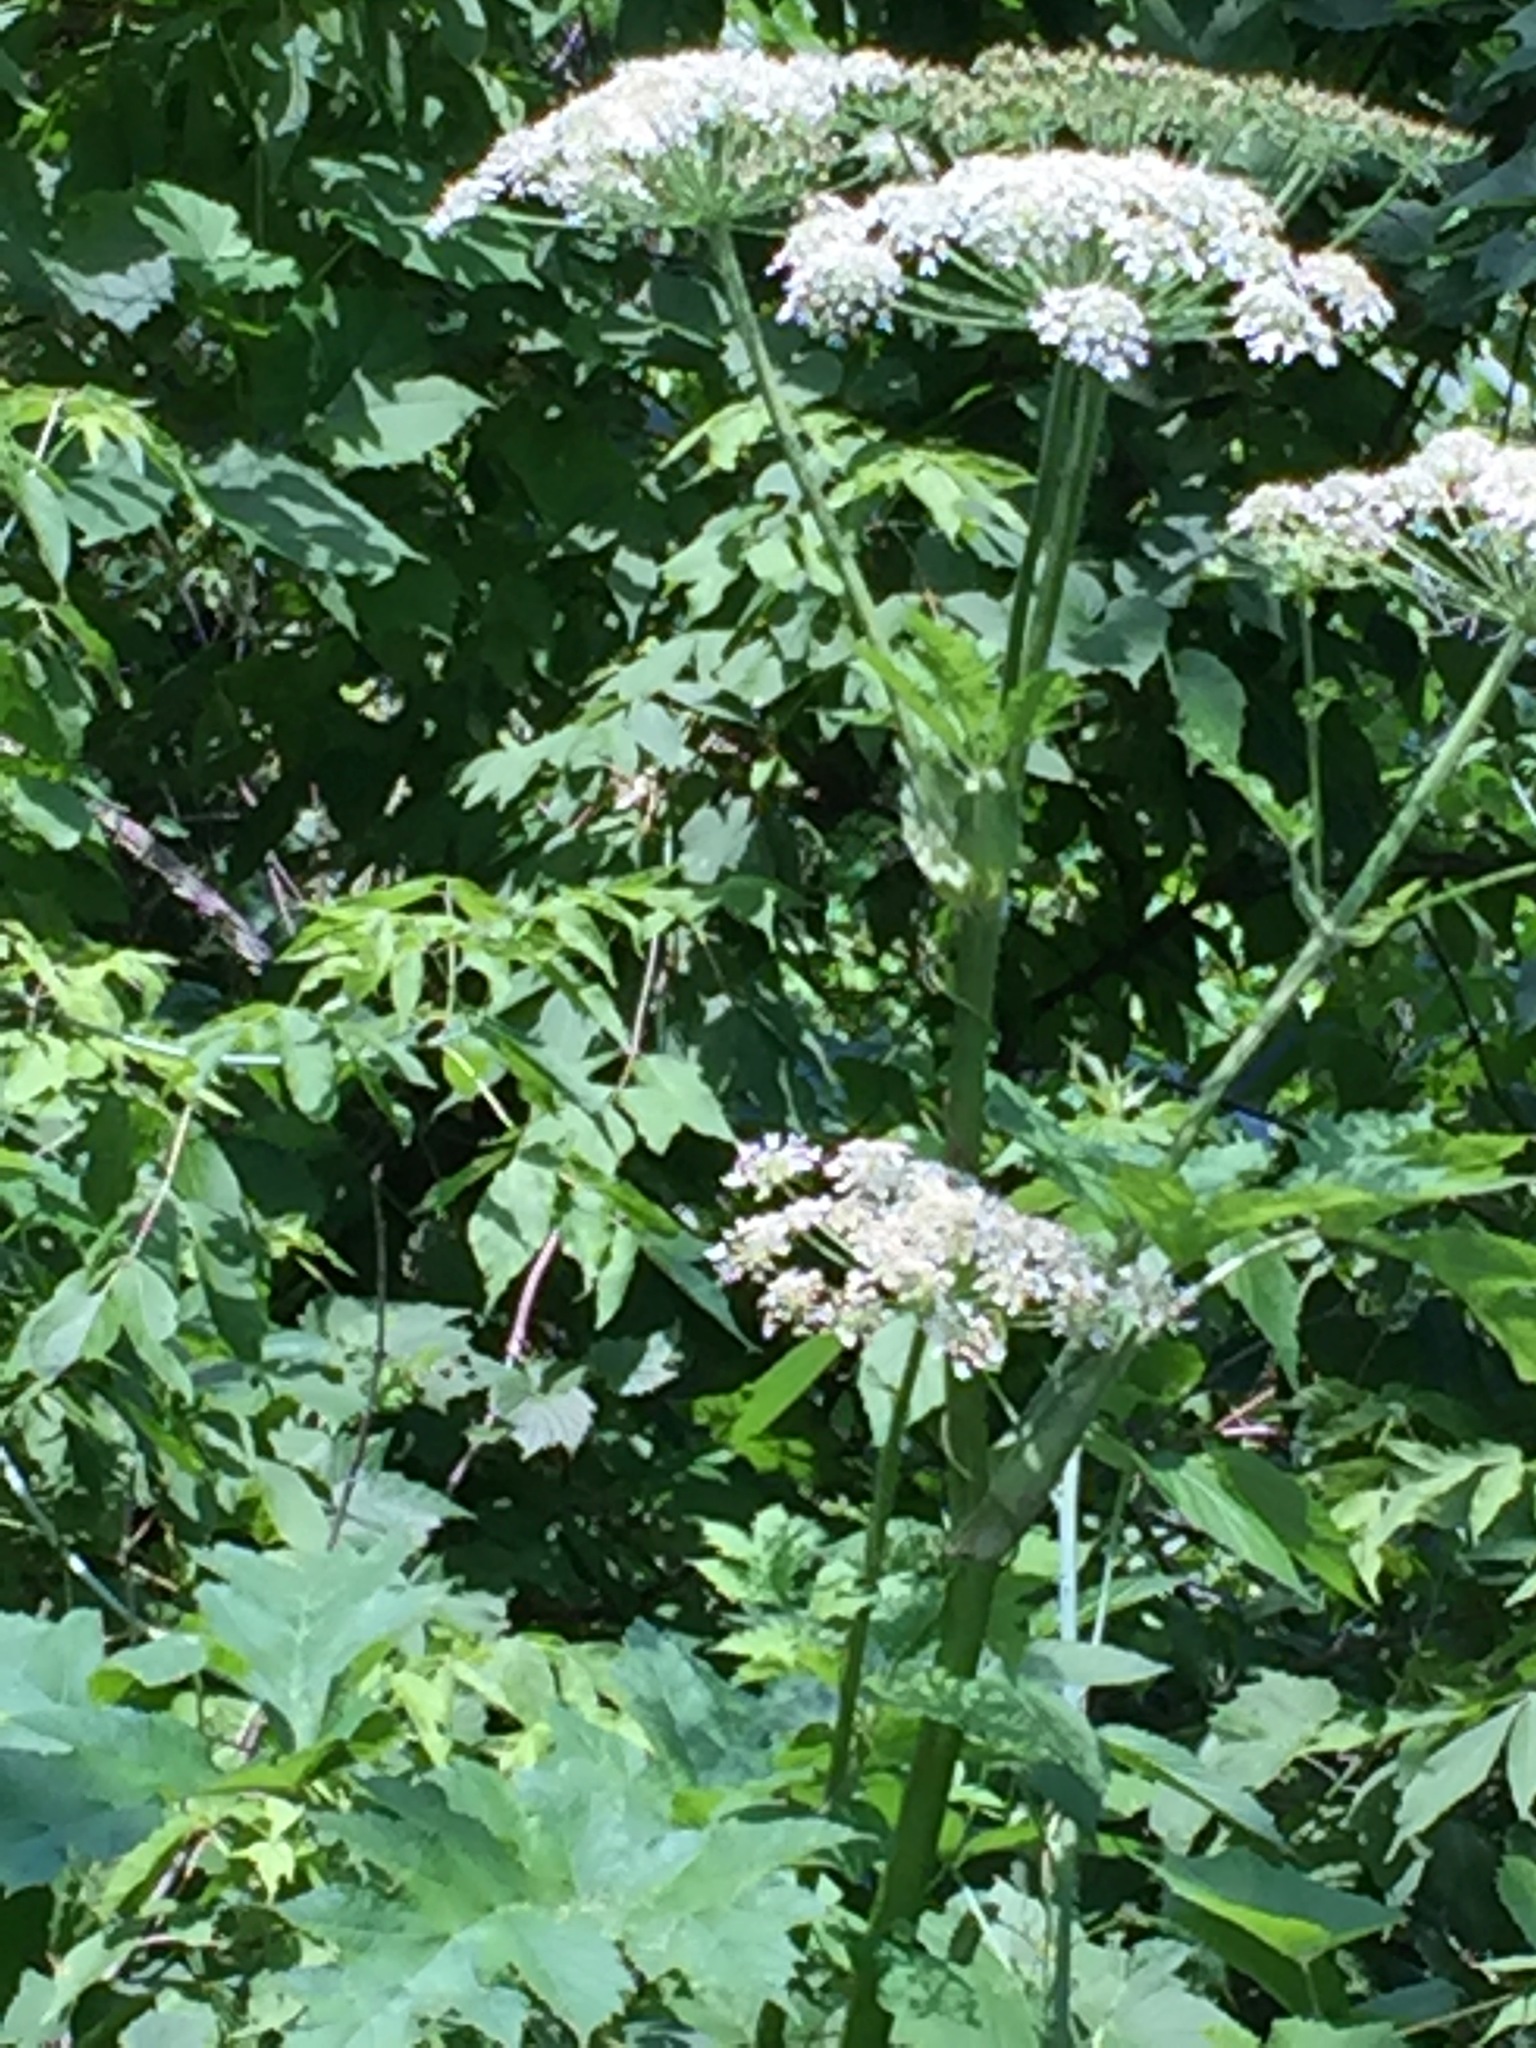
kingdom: Plantae
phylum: Tracheophyta
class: Magnoliopsida
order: Apiales
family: Apiaceae
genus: Heracleum
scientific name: Heracleum maximum
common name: American cow parsnip
